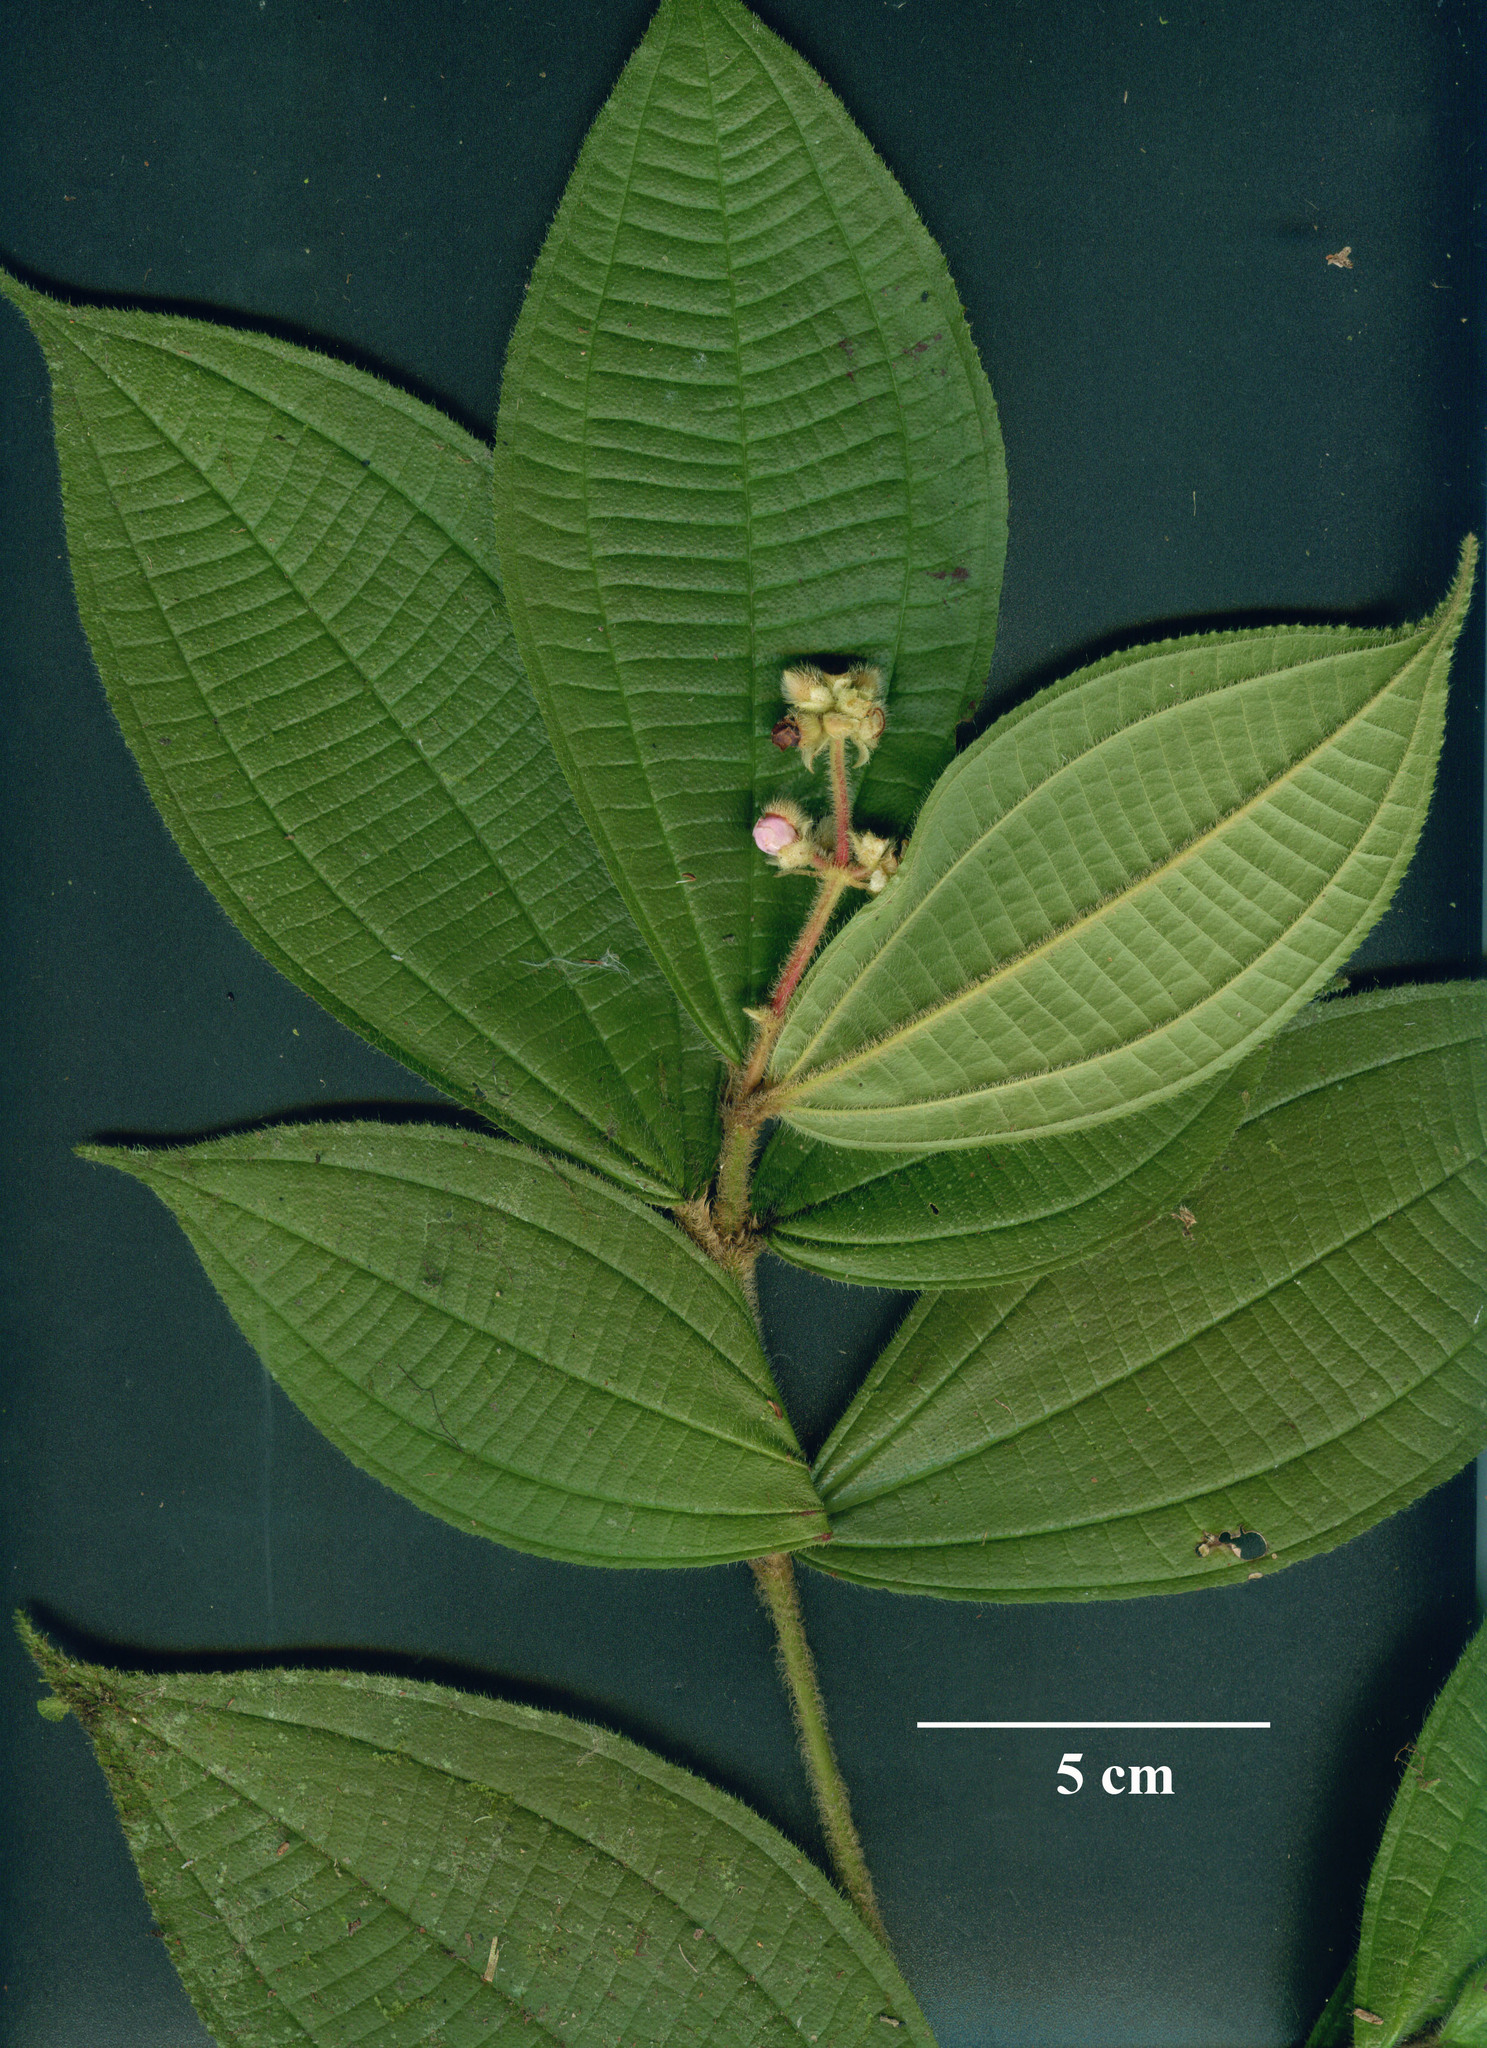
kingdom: Plantae
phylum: Tracheophyta
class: Magnoliopsida
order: Myrtales
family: Melastomataceae
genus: Miconia
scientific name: Miconia conobracteata
